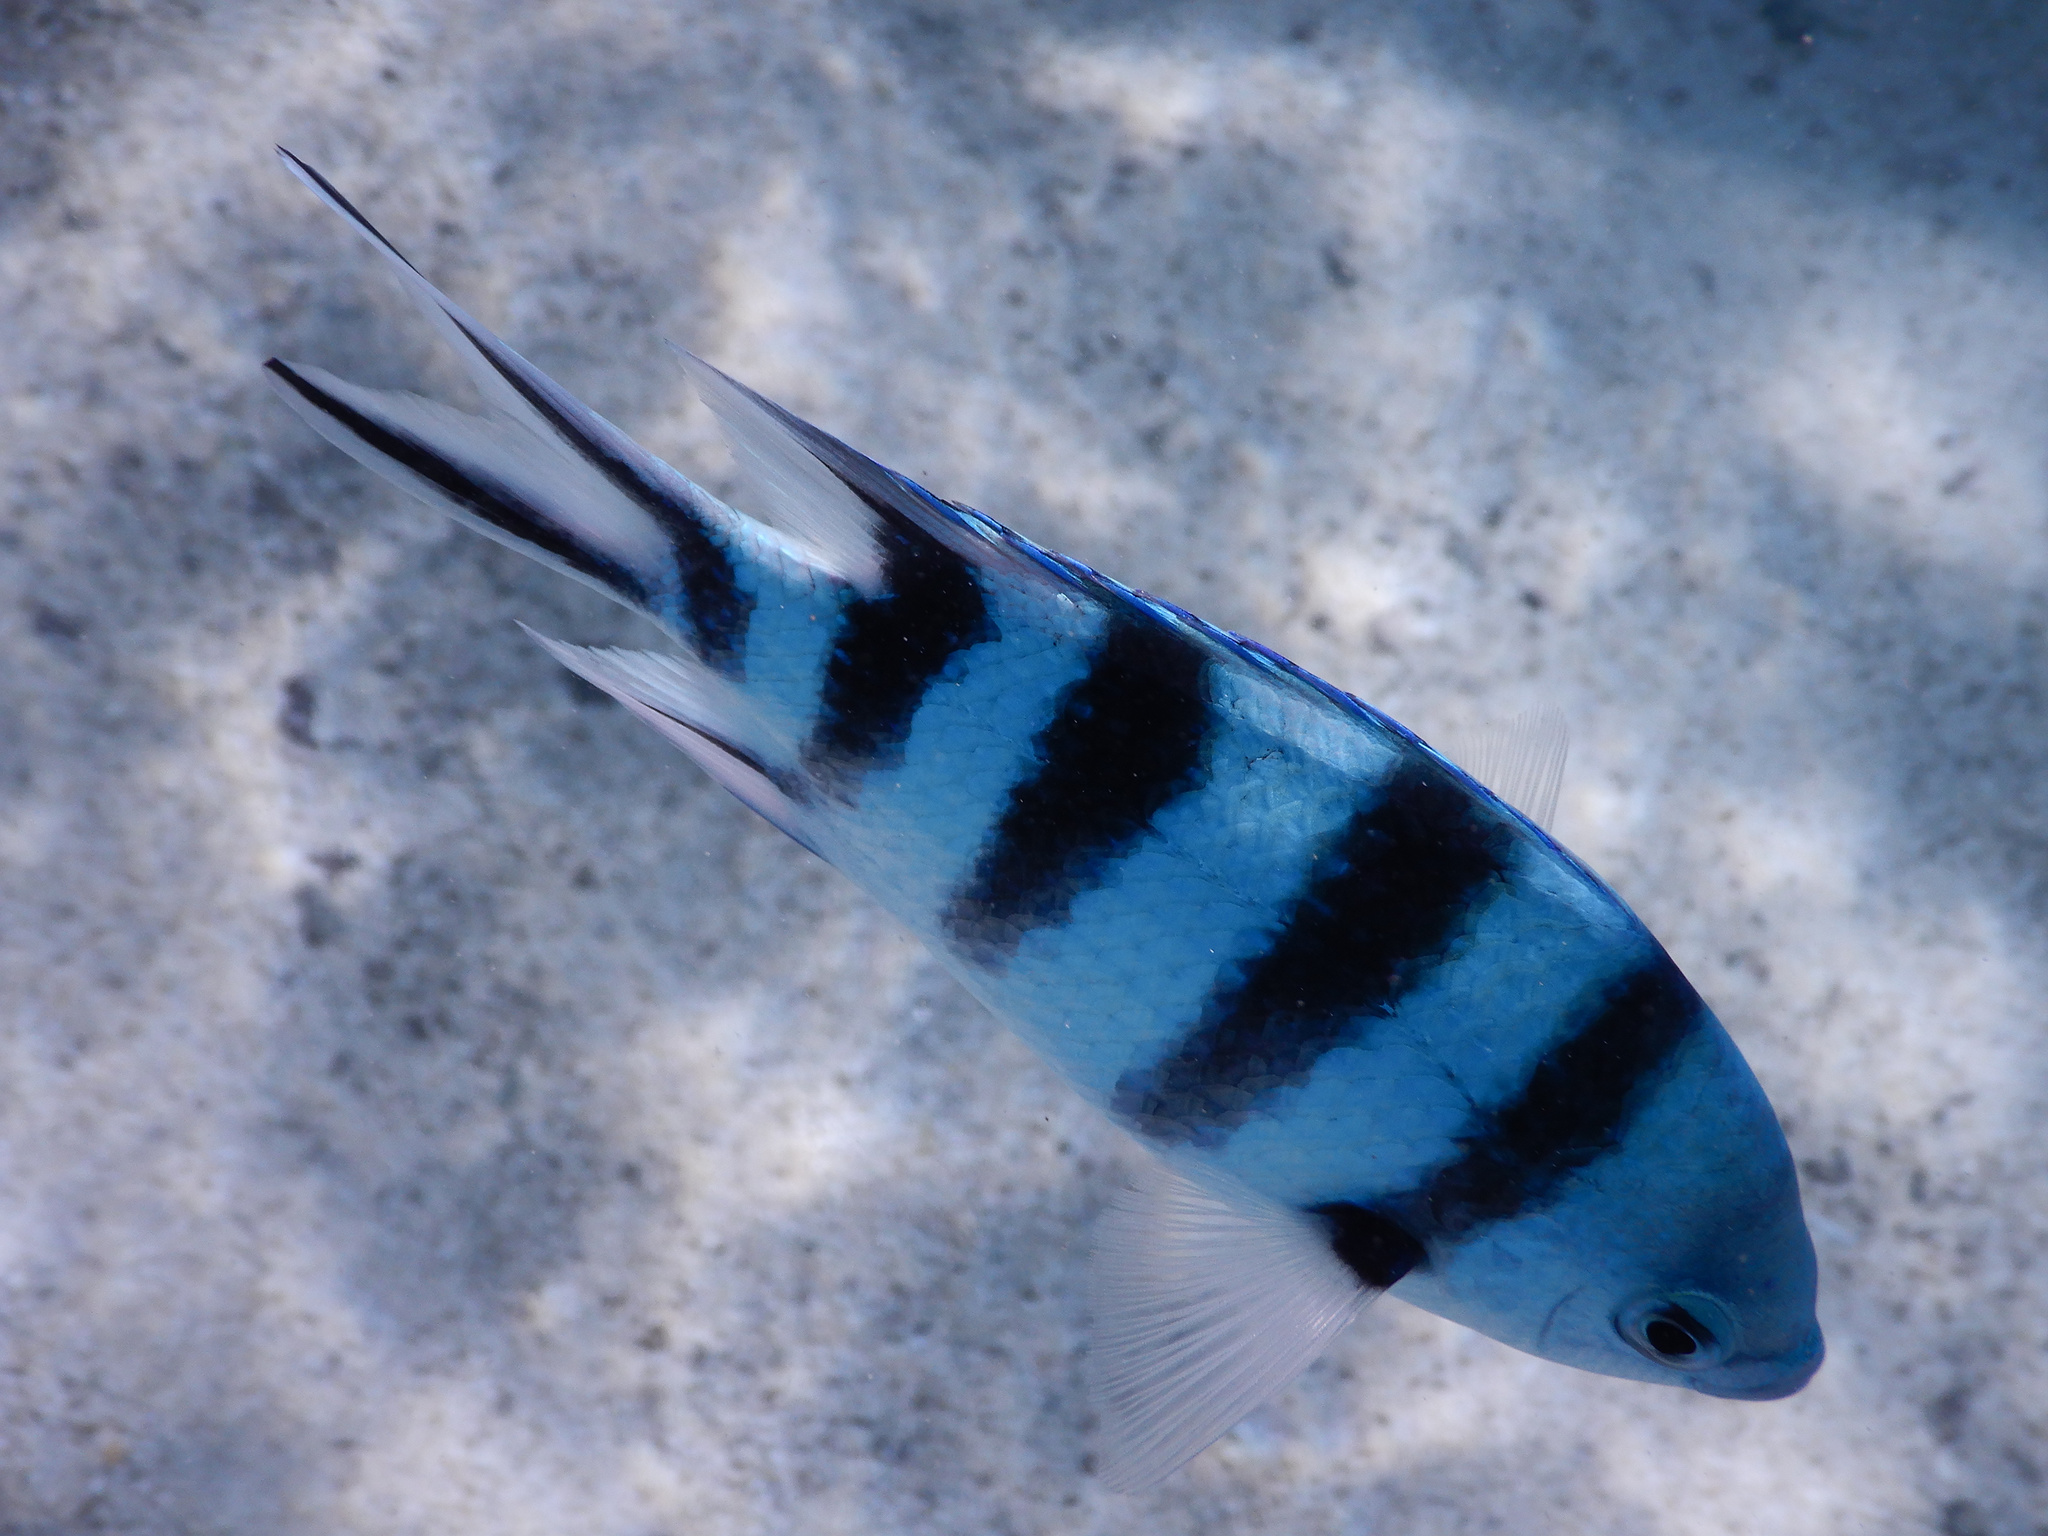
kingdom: Animalia
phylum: Chordata
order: Perciformes
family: Pomacentridae
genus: Abudefduf
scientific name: Abudefduf sexfasciatus
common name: Scissortail sergeant
